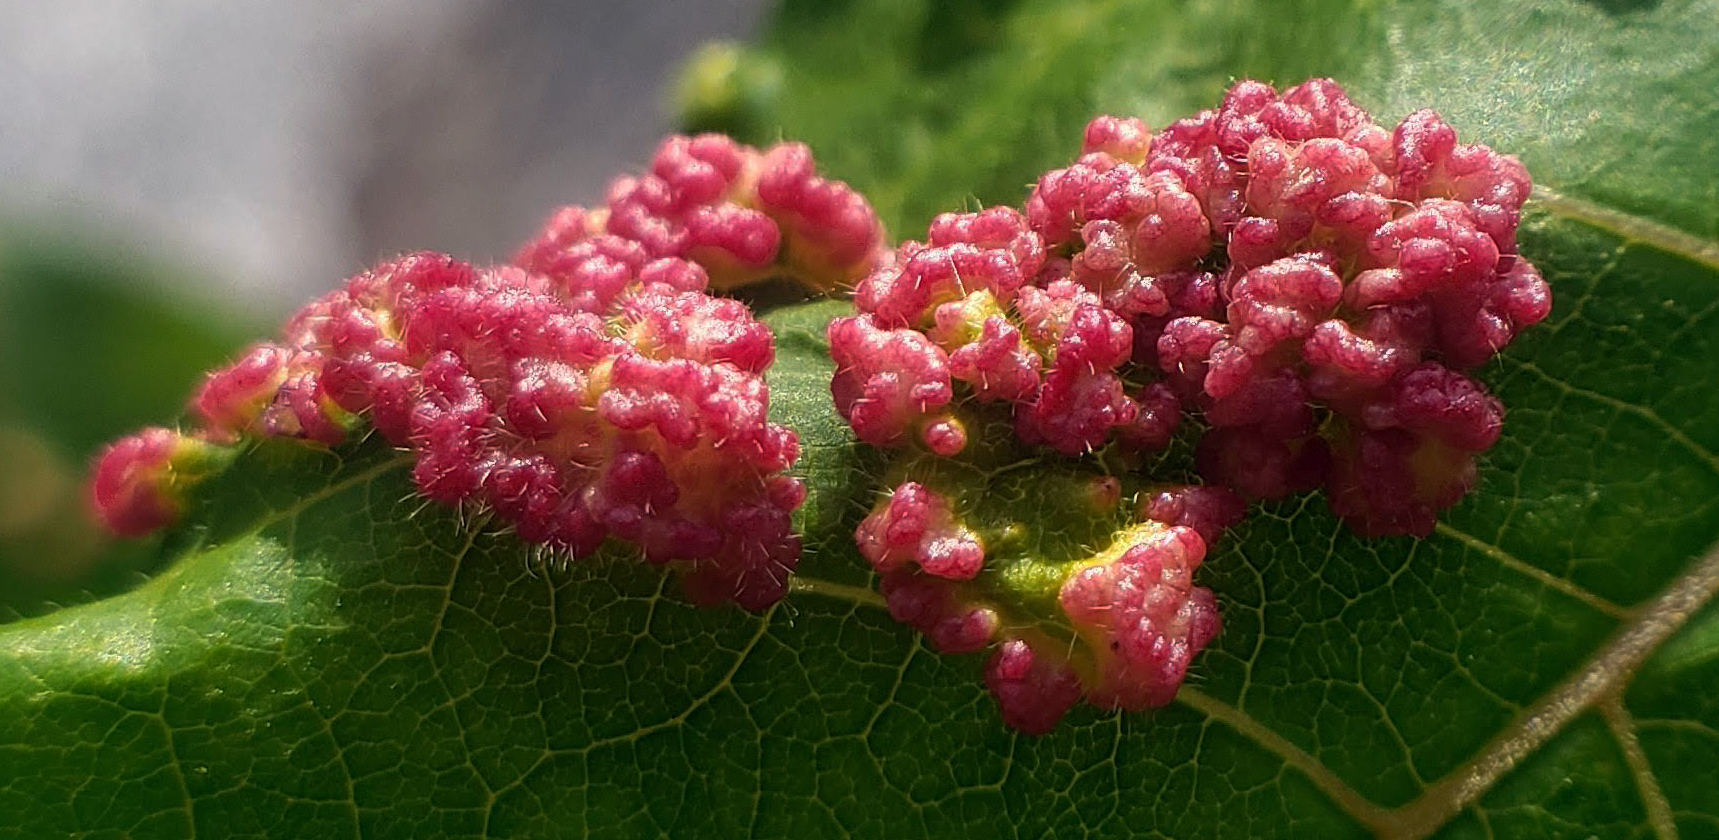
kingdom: Animalia
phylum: Arthropoda
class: Arachnida
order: Trombidiformes
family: Eriophyidae
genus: Aculops
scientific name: Aculops
